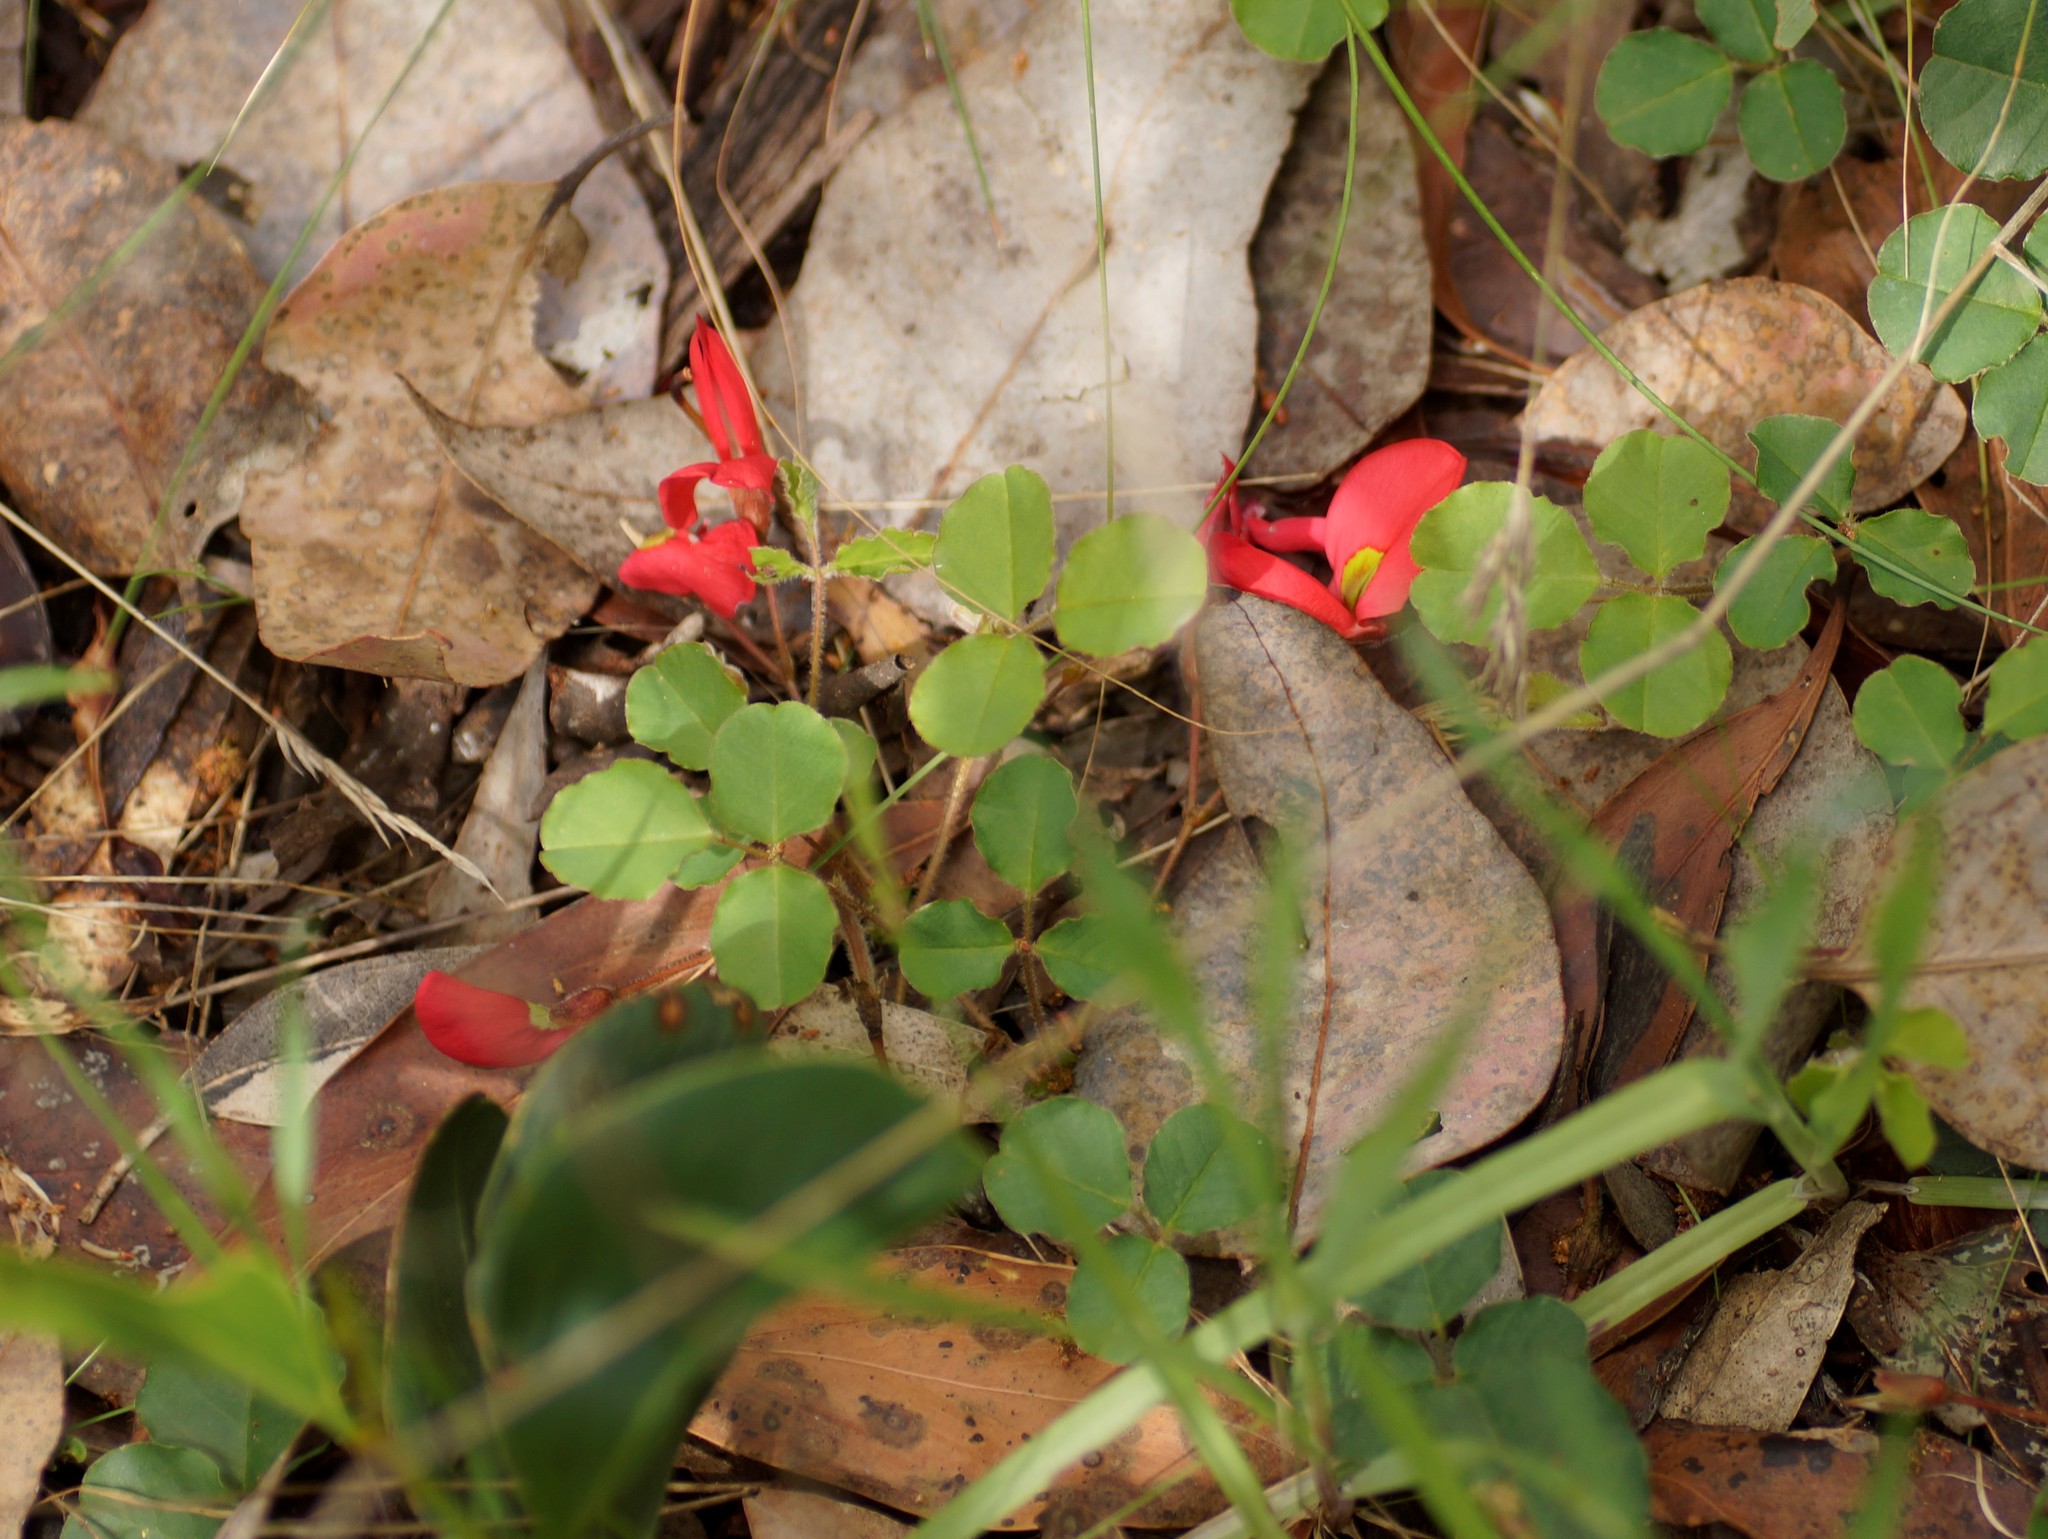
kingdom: Plantae
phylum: Tracheophyta
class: Magnoliopsida
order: Fabales
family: Fabaceae
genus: Kennedia
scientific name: Kennedia prostrata
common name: Running-postman
